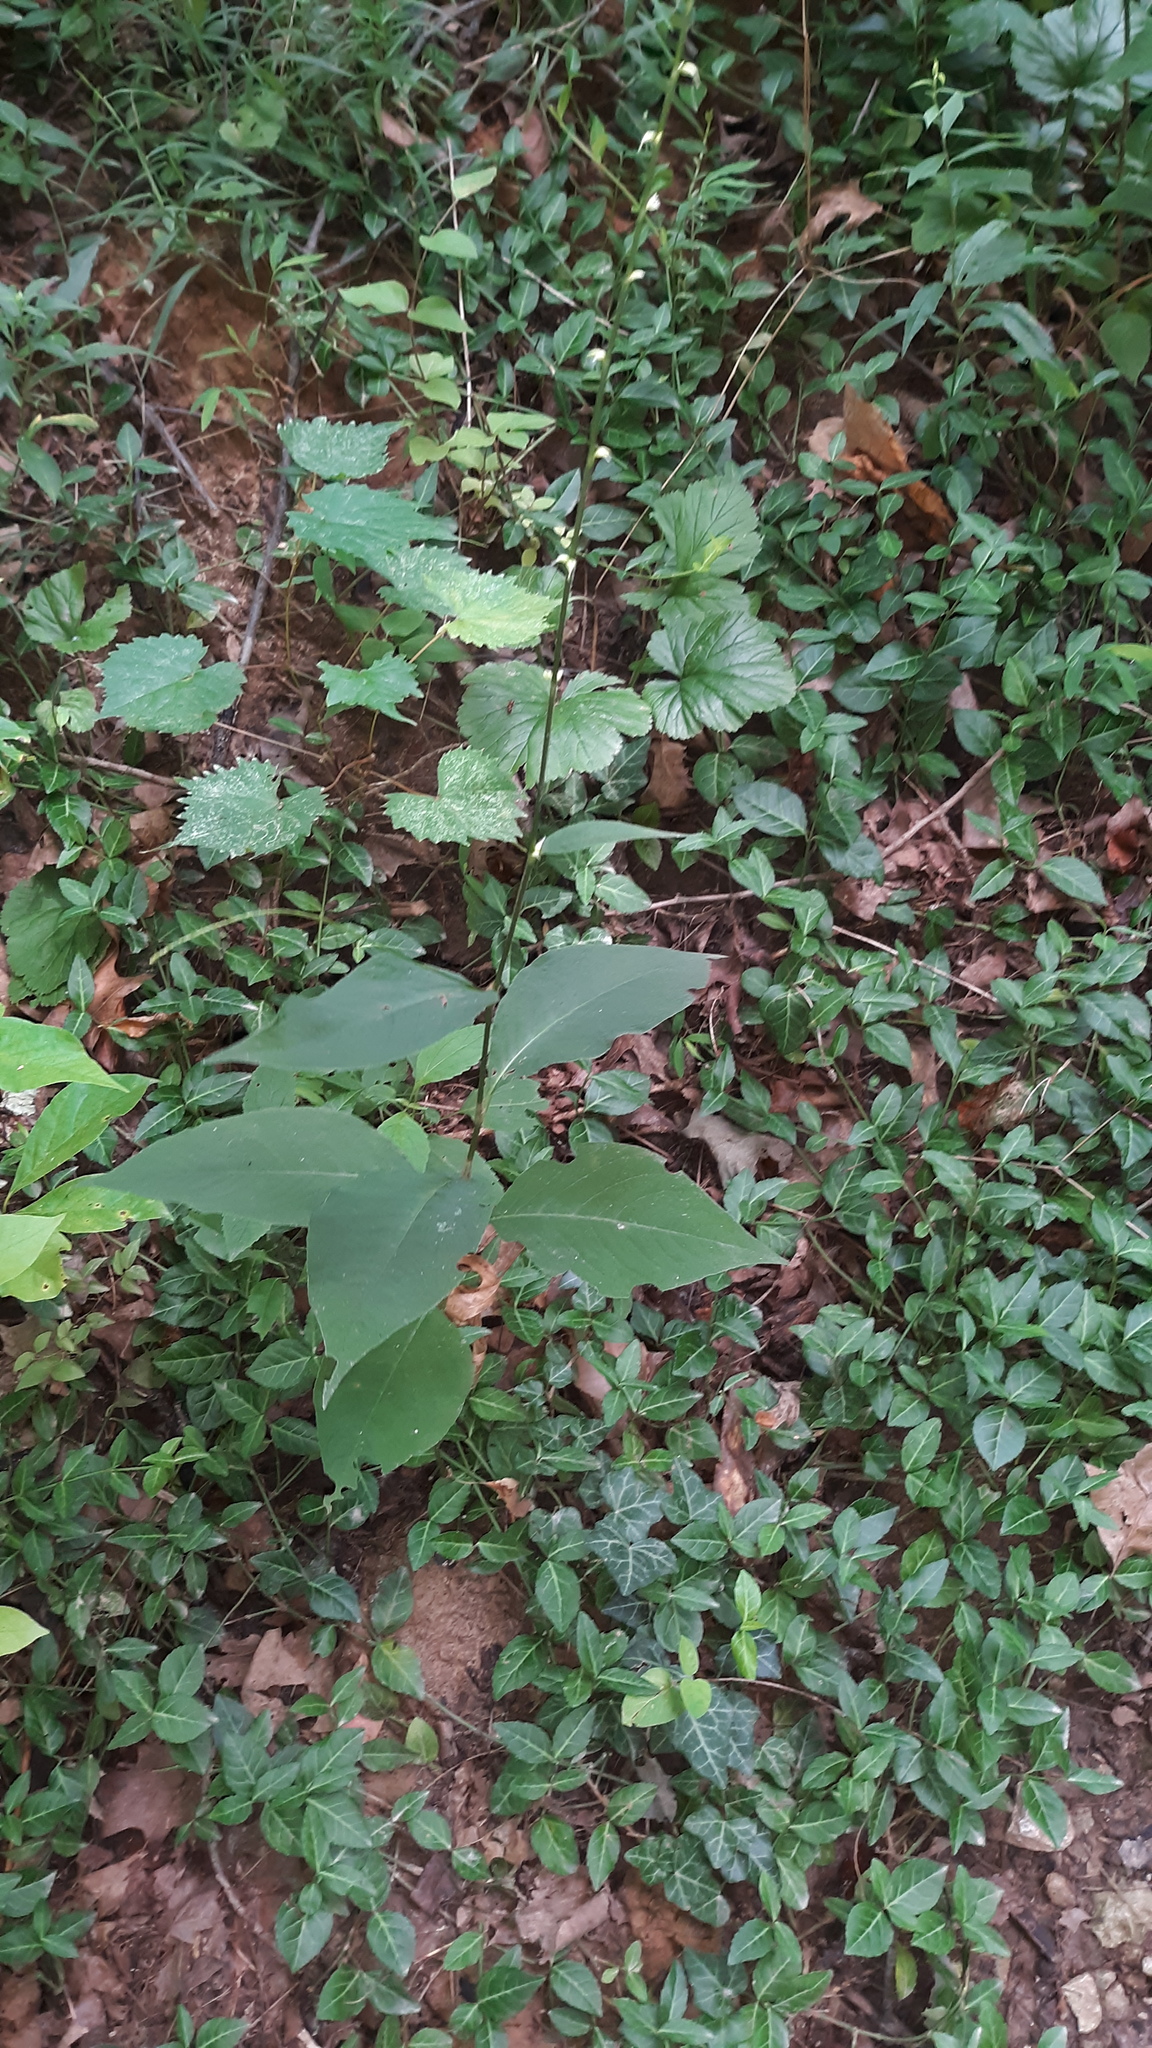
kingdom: Plantae
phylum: Tracheophyta
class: Magnoliopsida
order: Caryophyllales
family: Polygonaceae
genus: Persicaria
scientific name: Persicaria virginiana
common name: Jumpseed
